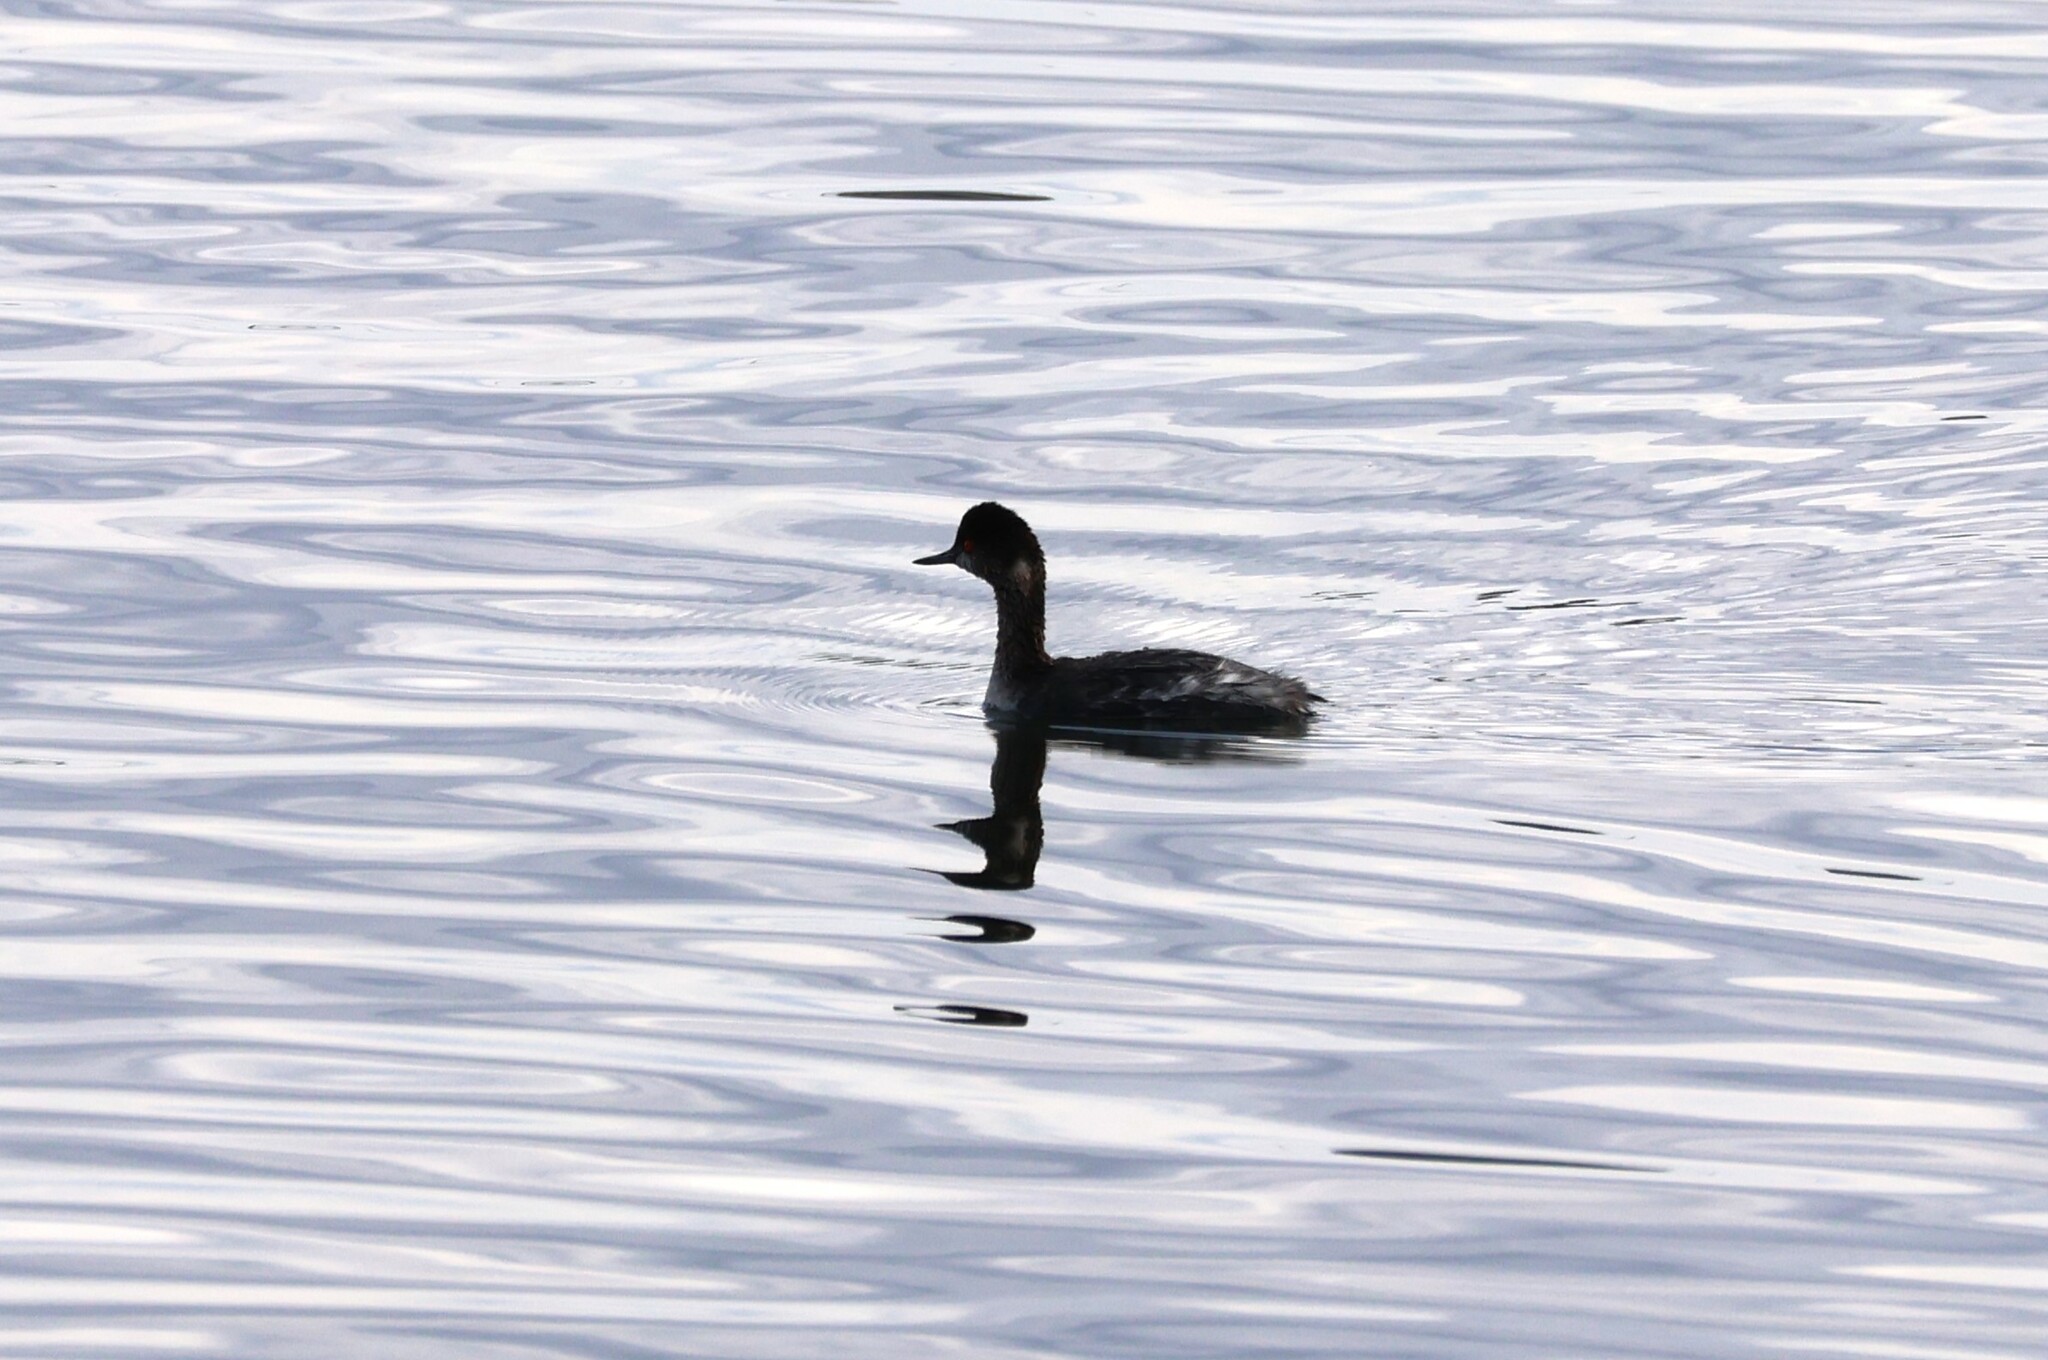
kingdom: Animalia
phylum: Chordata
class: Aves
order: Podicipediformes
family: Podicipedidae
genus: Podiceps
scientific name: Podiceps nigricollis
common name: Black-necked grebe
